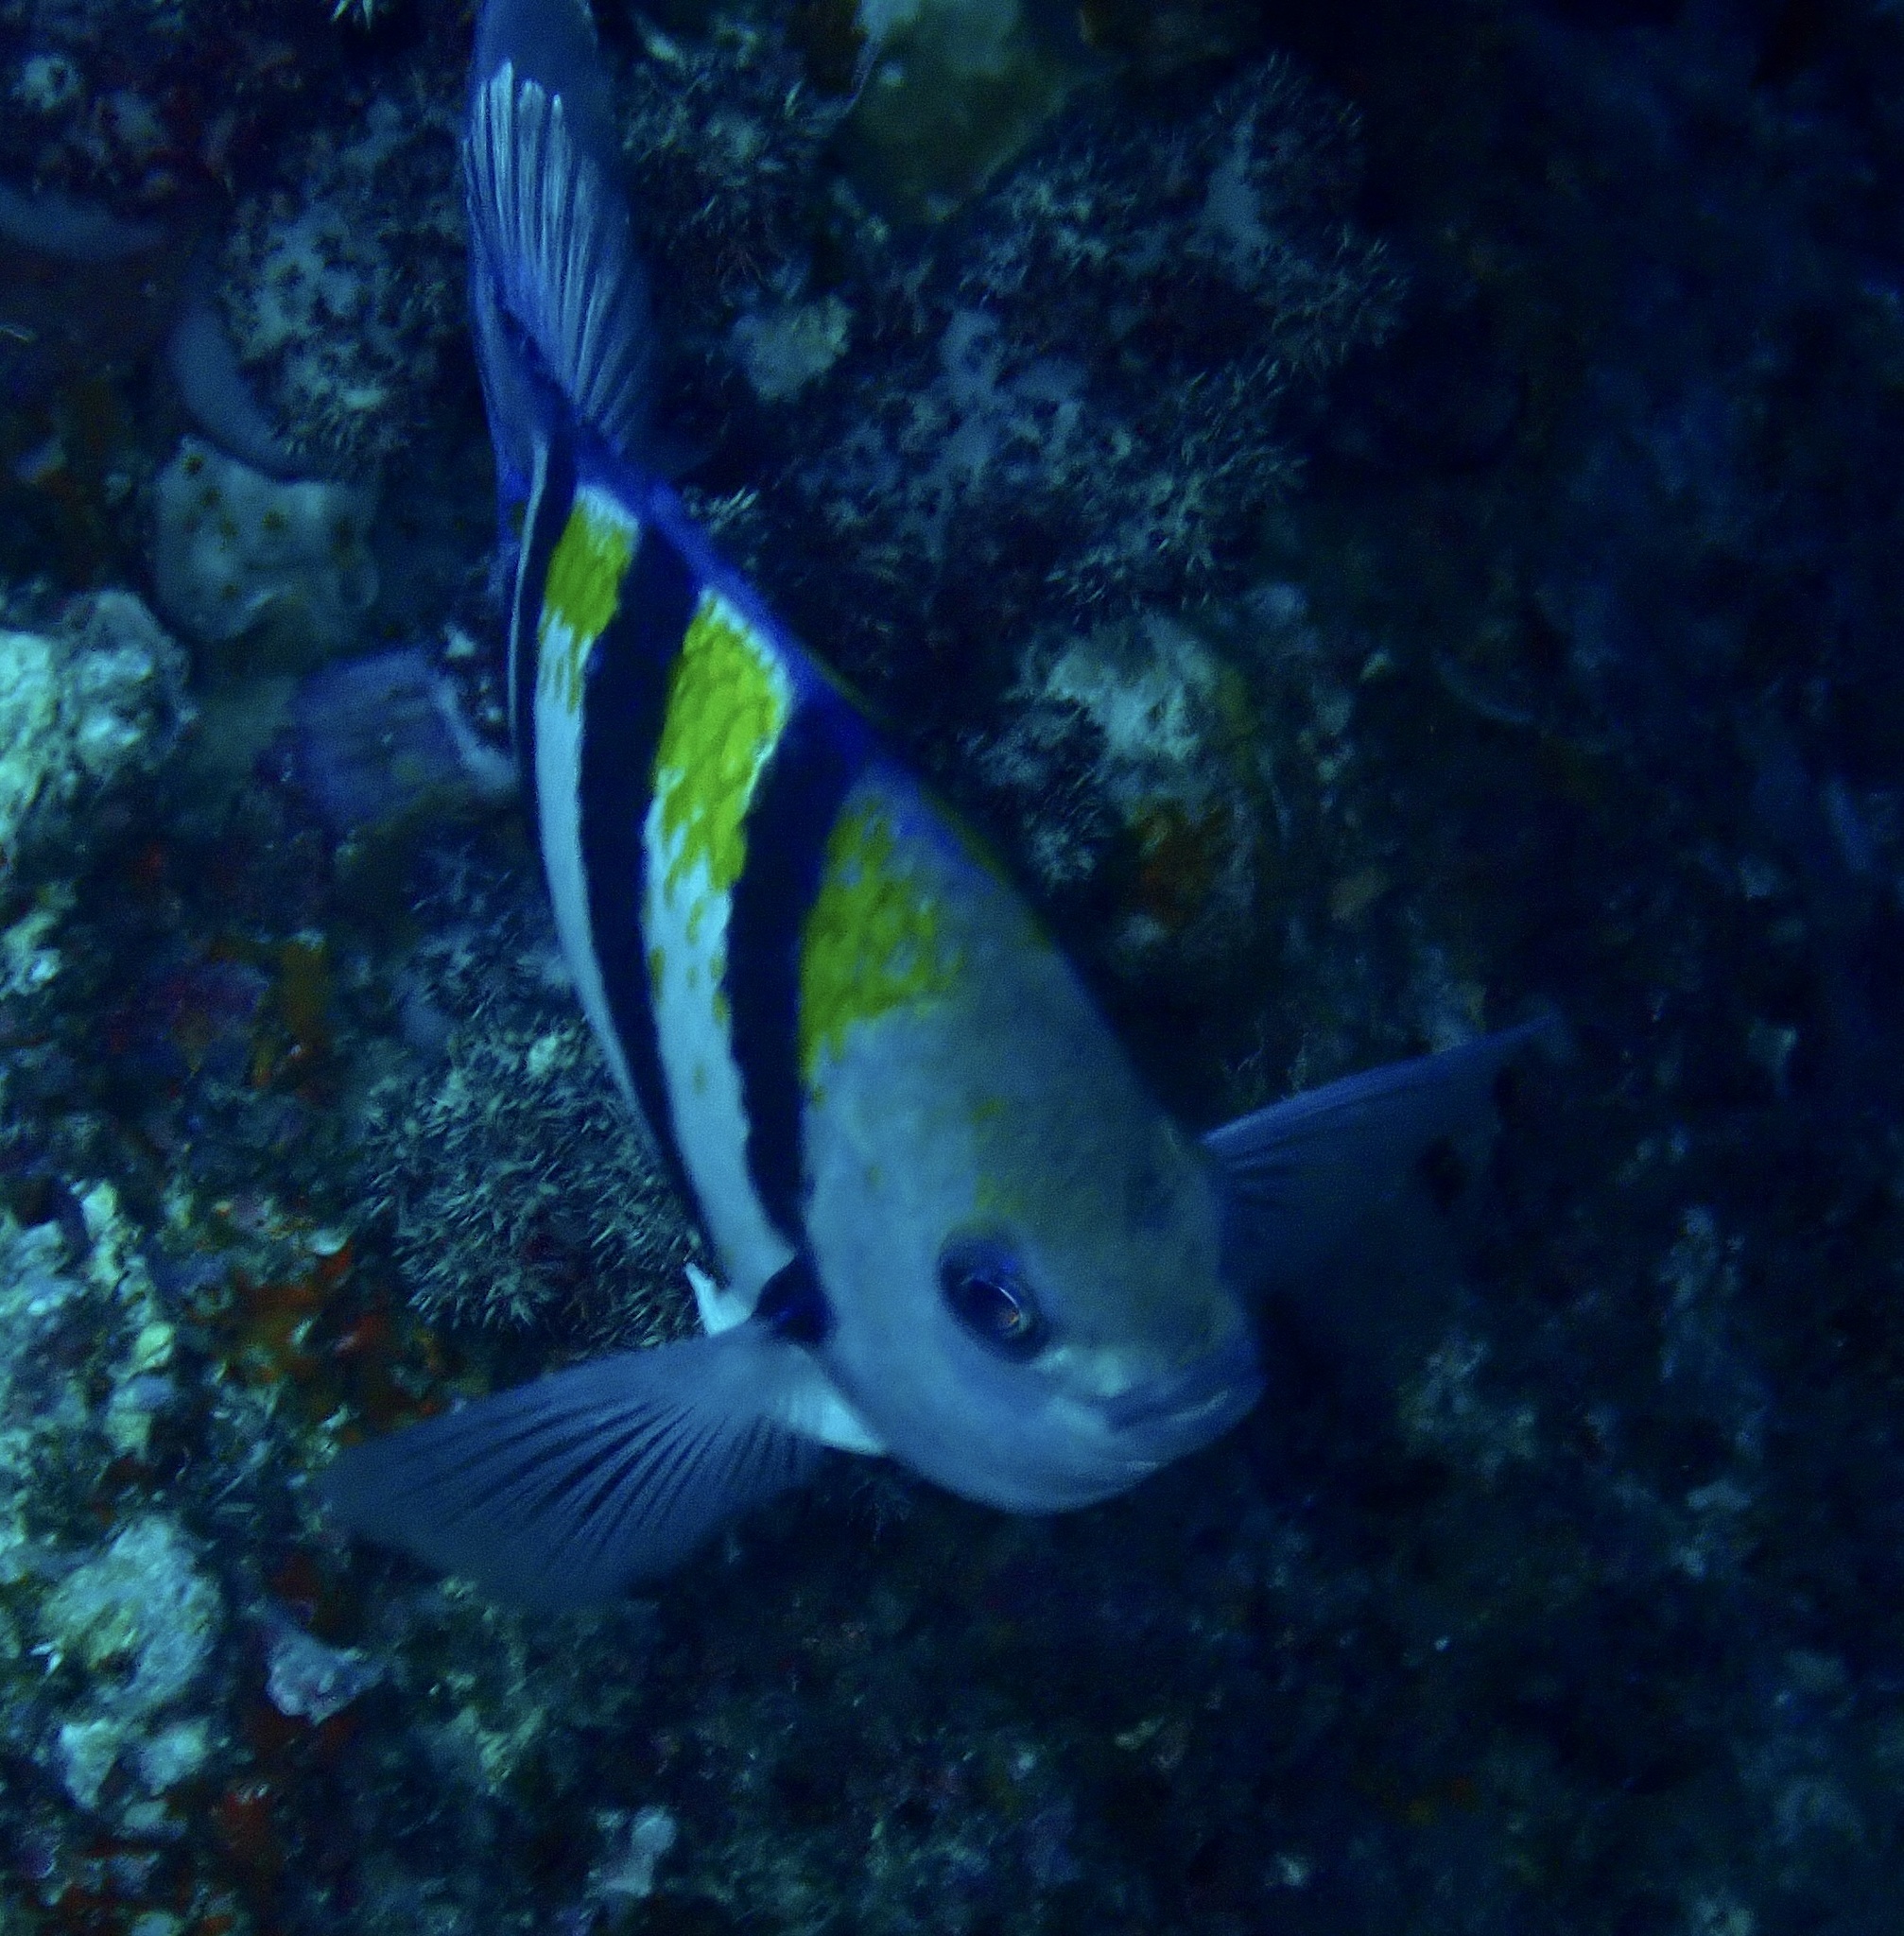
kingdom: Animalia
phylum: Chordata
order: Perciformes
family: Pomacentridae
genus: Abudefduf
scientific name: Abudefduf vaigiensis
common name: Indo-pacific sergeant
